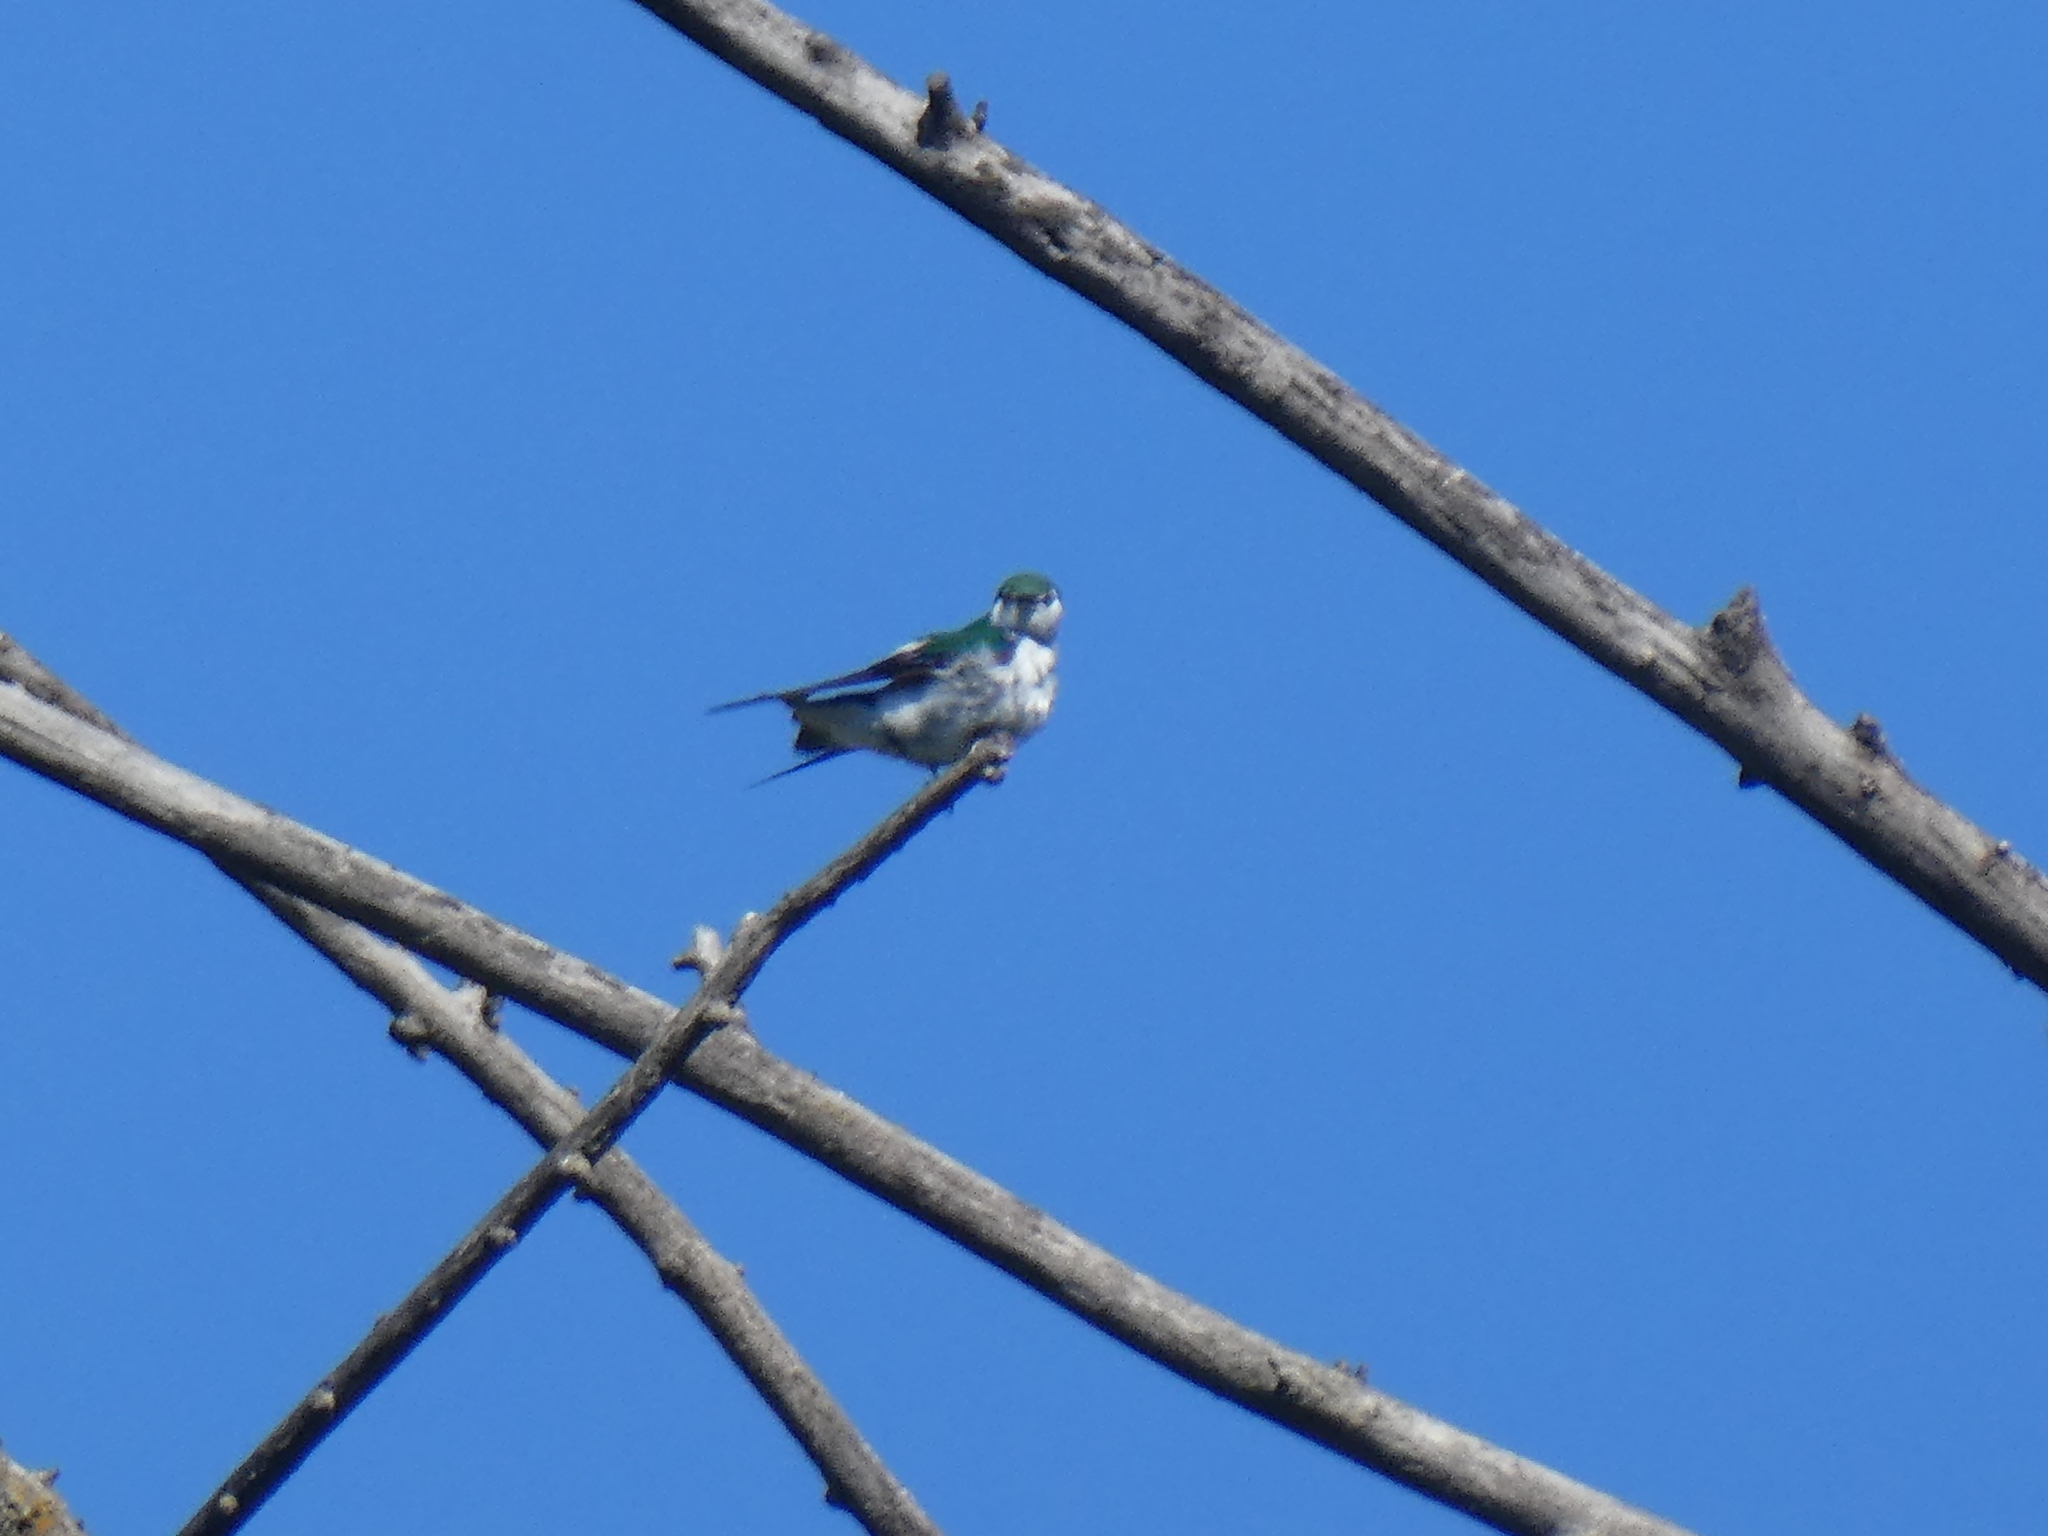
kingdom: Animalia
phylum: Chordata
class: Aves
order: Passeriformes
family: Hirundinidae
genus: Tachycineta
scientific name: Tachycineta thalassina
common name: Violet-green swallow
